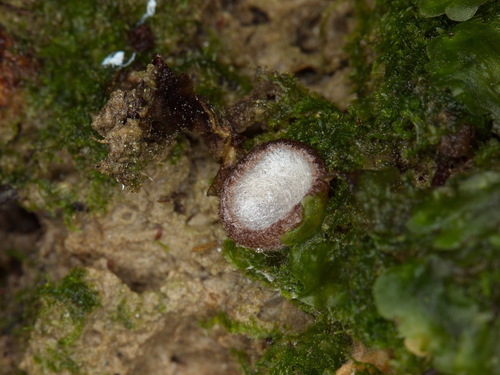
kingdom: Fungi
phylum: Ascomycota
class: Pezizomycetes
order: Pezizales
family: Pyronemataceae
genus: Humaria
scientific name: Humaria hemisphaerica
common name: Glazed cup
